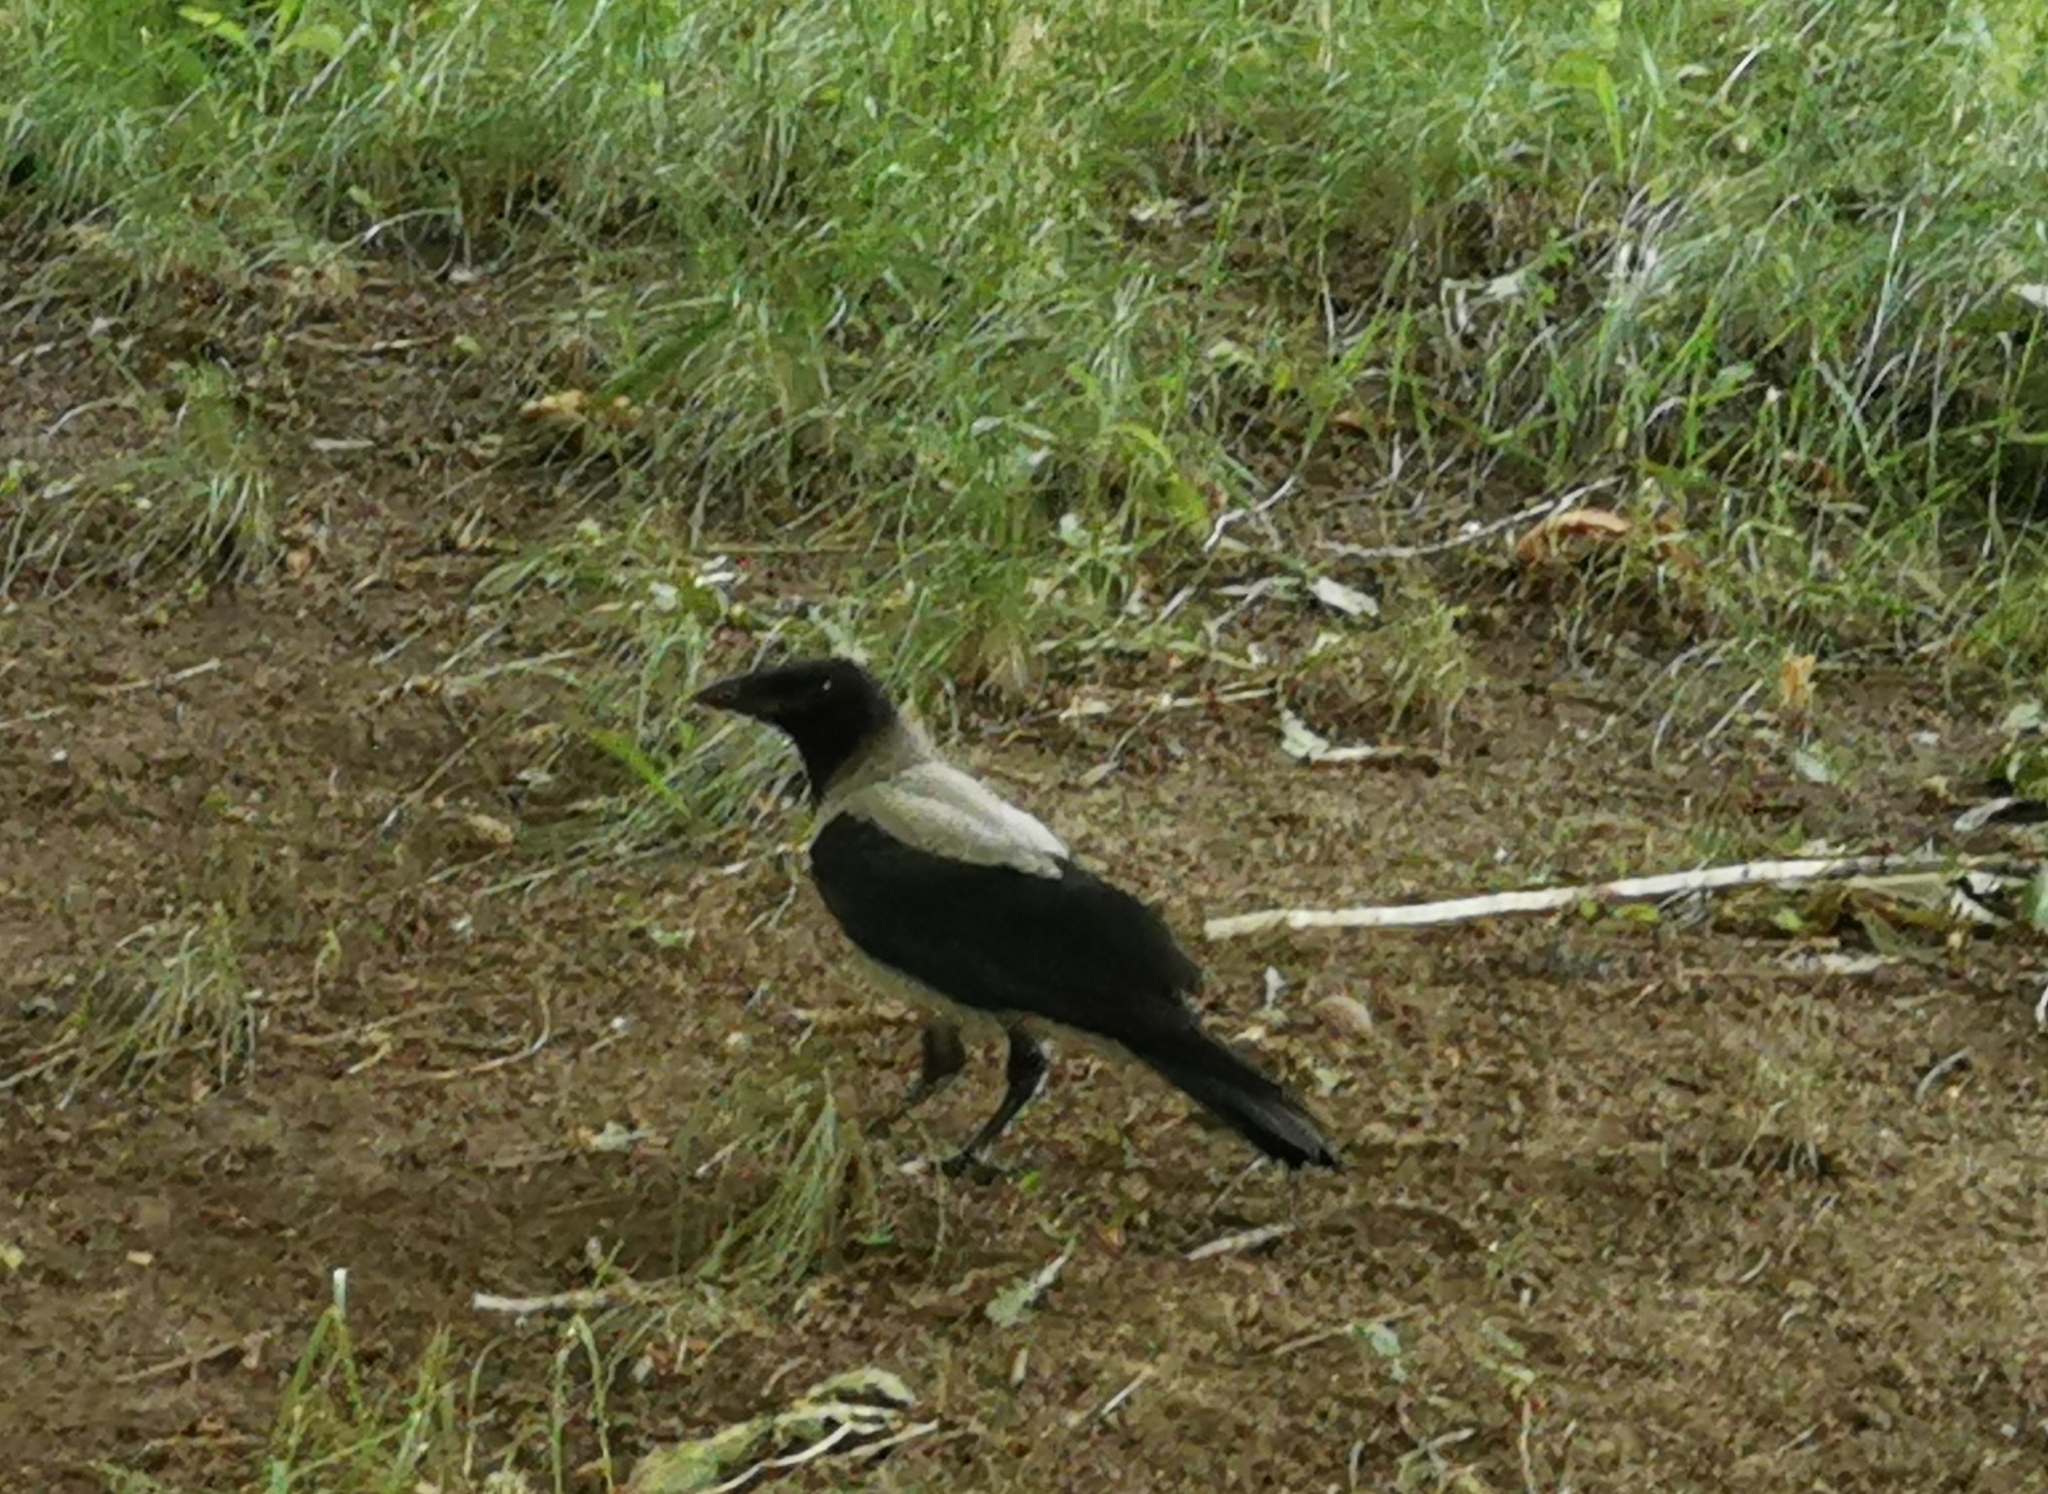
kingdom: Animalia
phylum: Chordata
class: Aves
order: Passeriformes
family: Corvidae
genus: Corvus
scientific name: Corvus cornix
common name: Hooded crow
